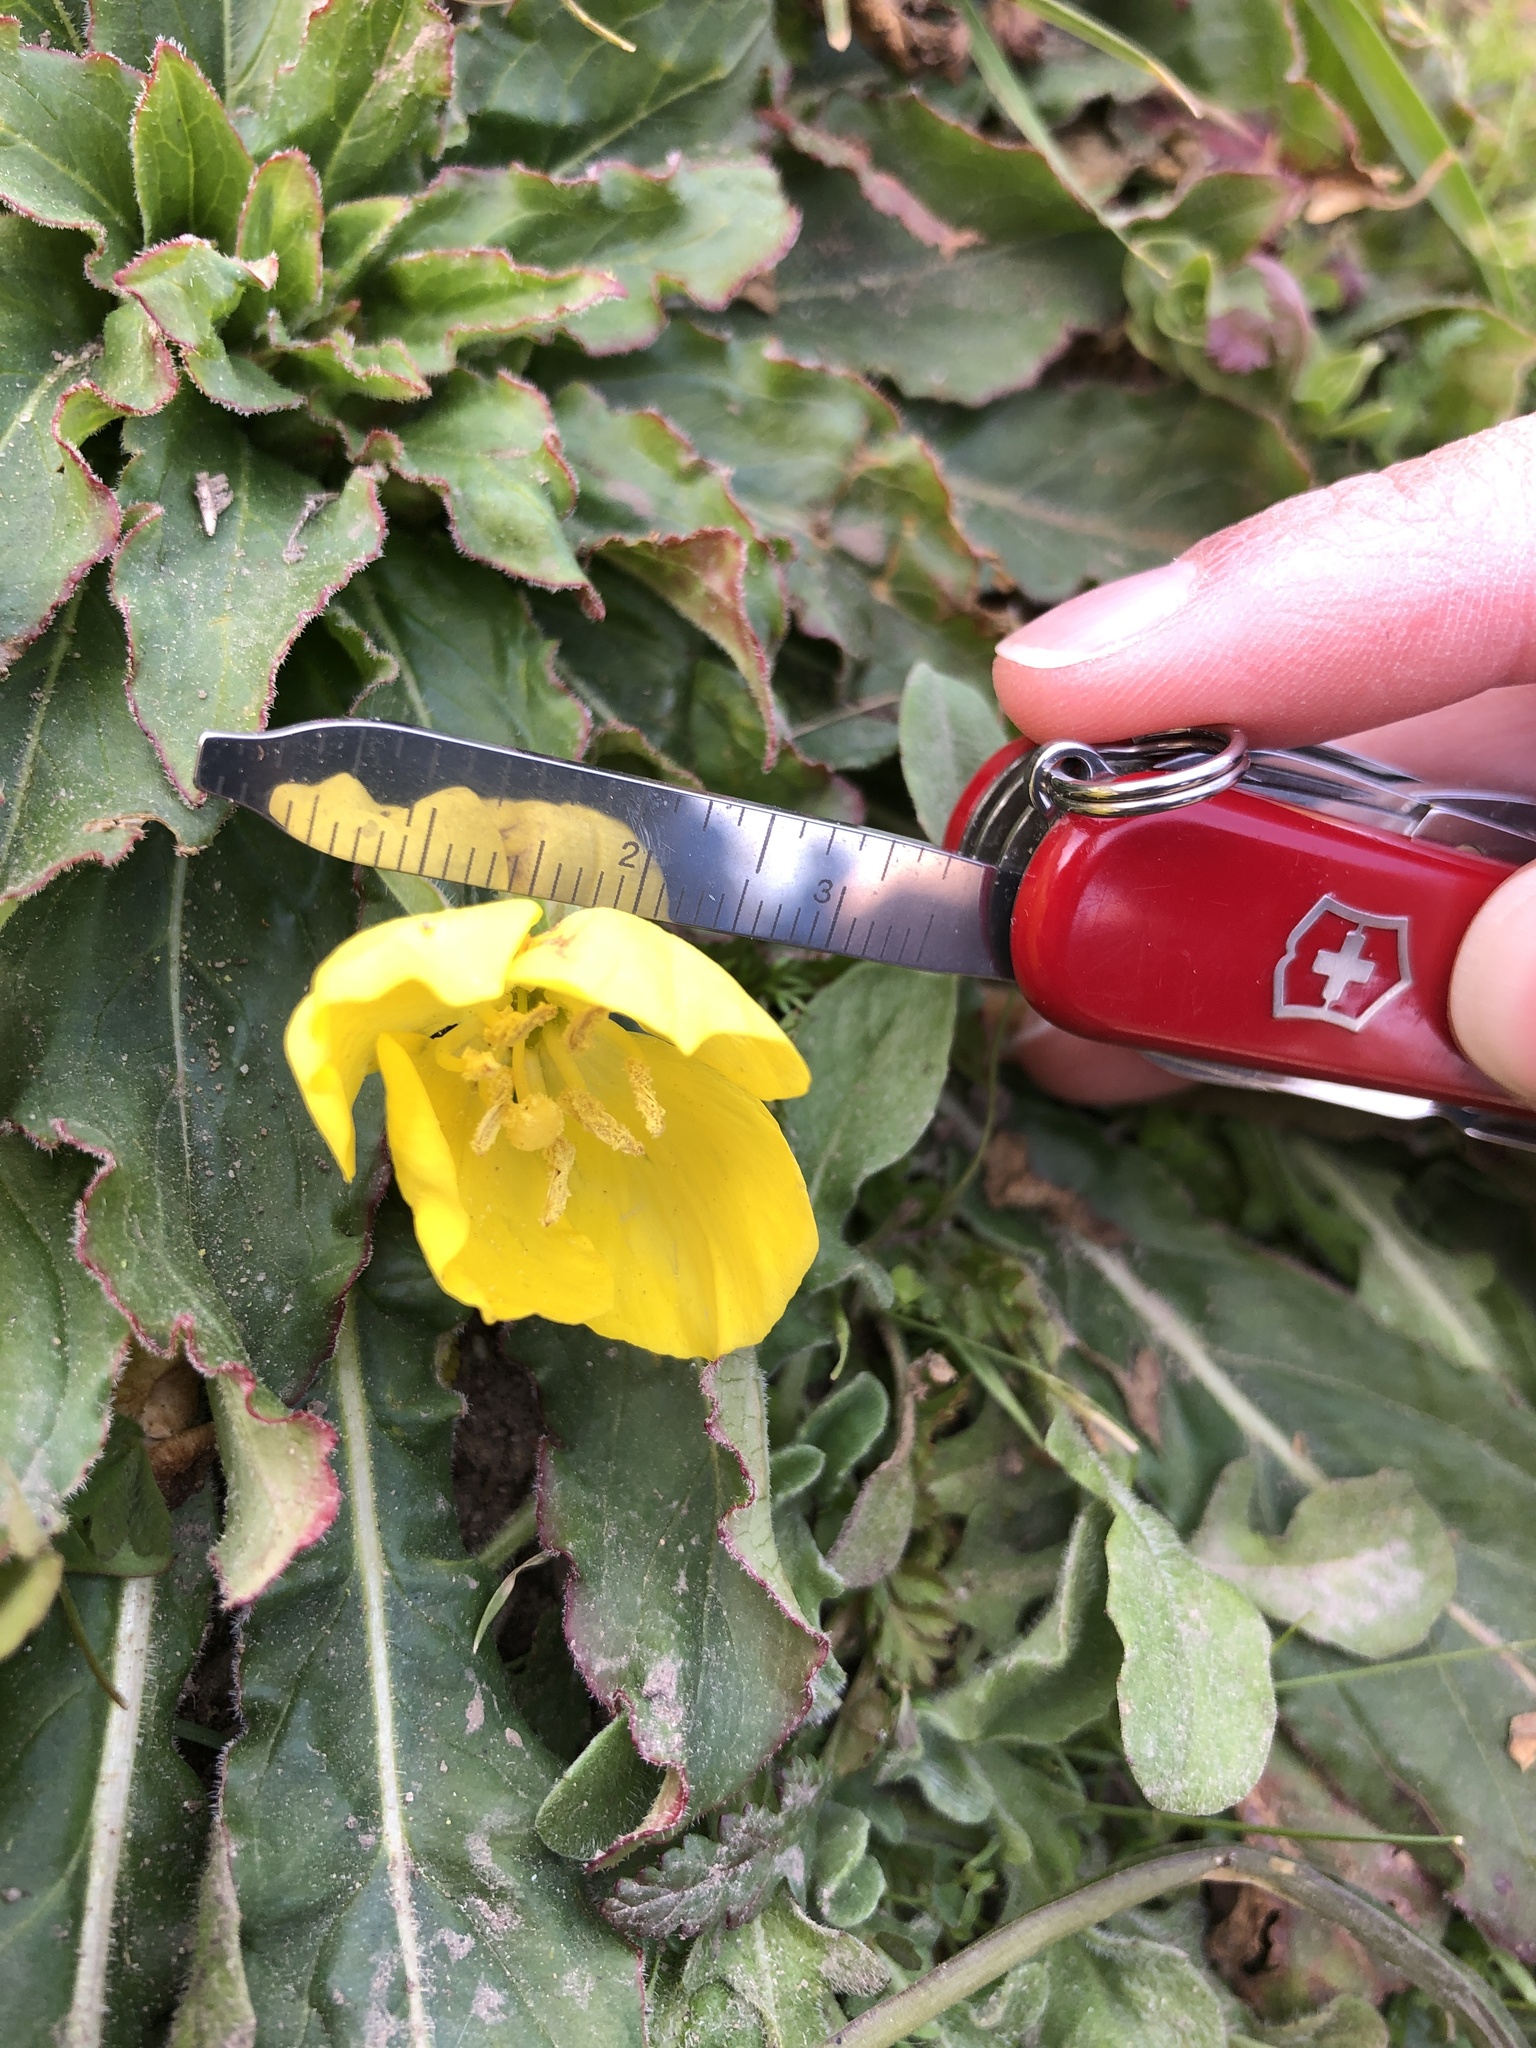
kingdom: Plantae
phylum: Tracheophyta
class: Magnoliopsida
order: Myrtales
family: Onagraceae
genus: Taraxia
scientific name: Taraxia ovata
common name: Goldeneggs
